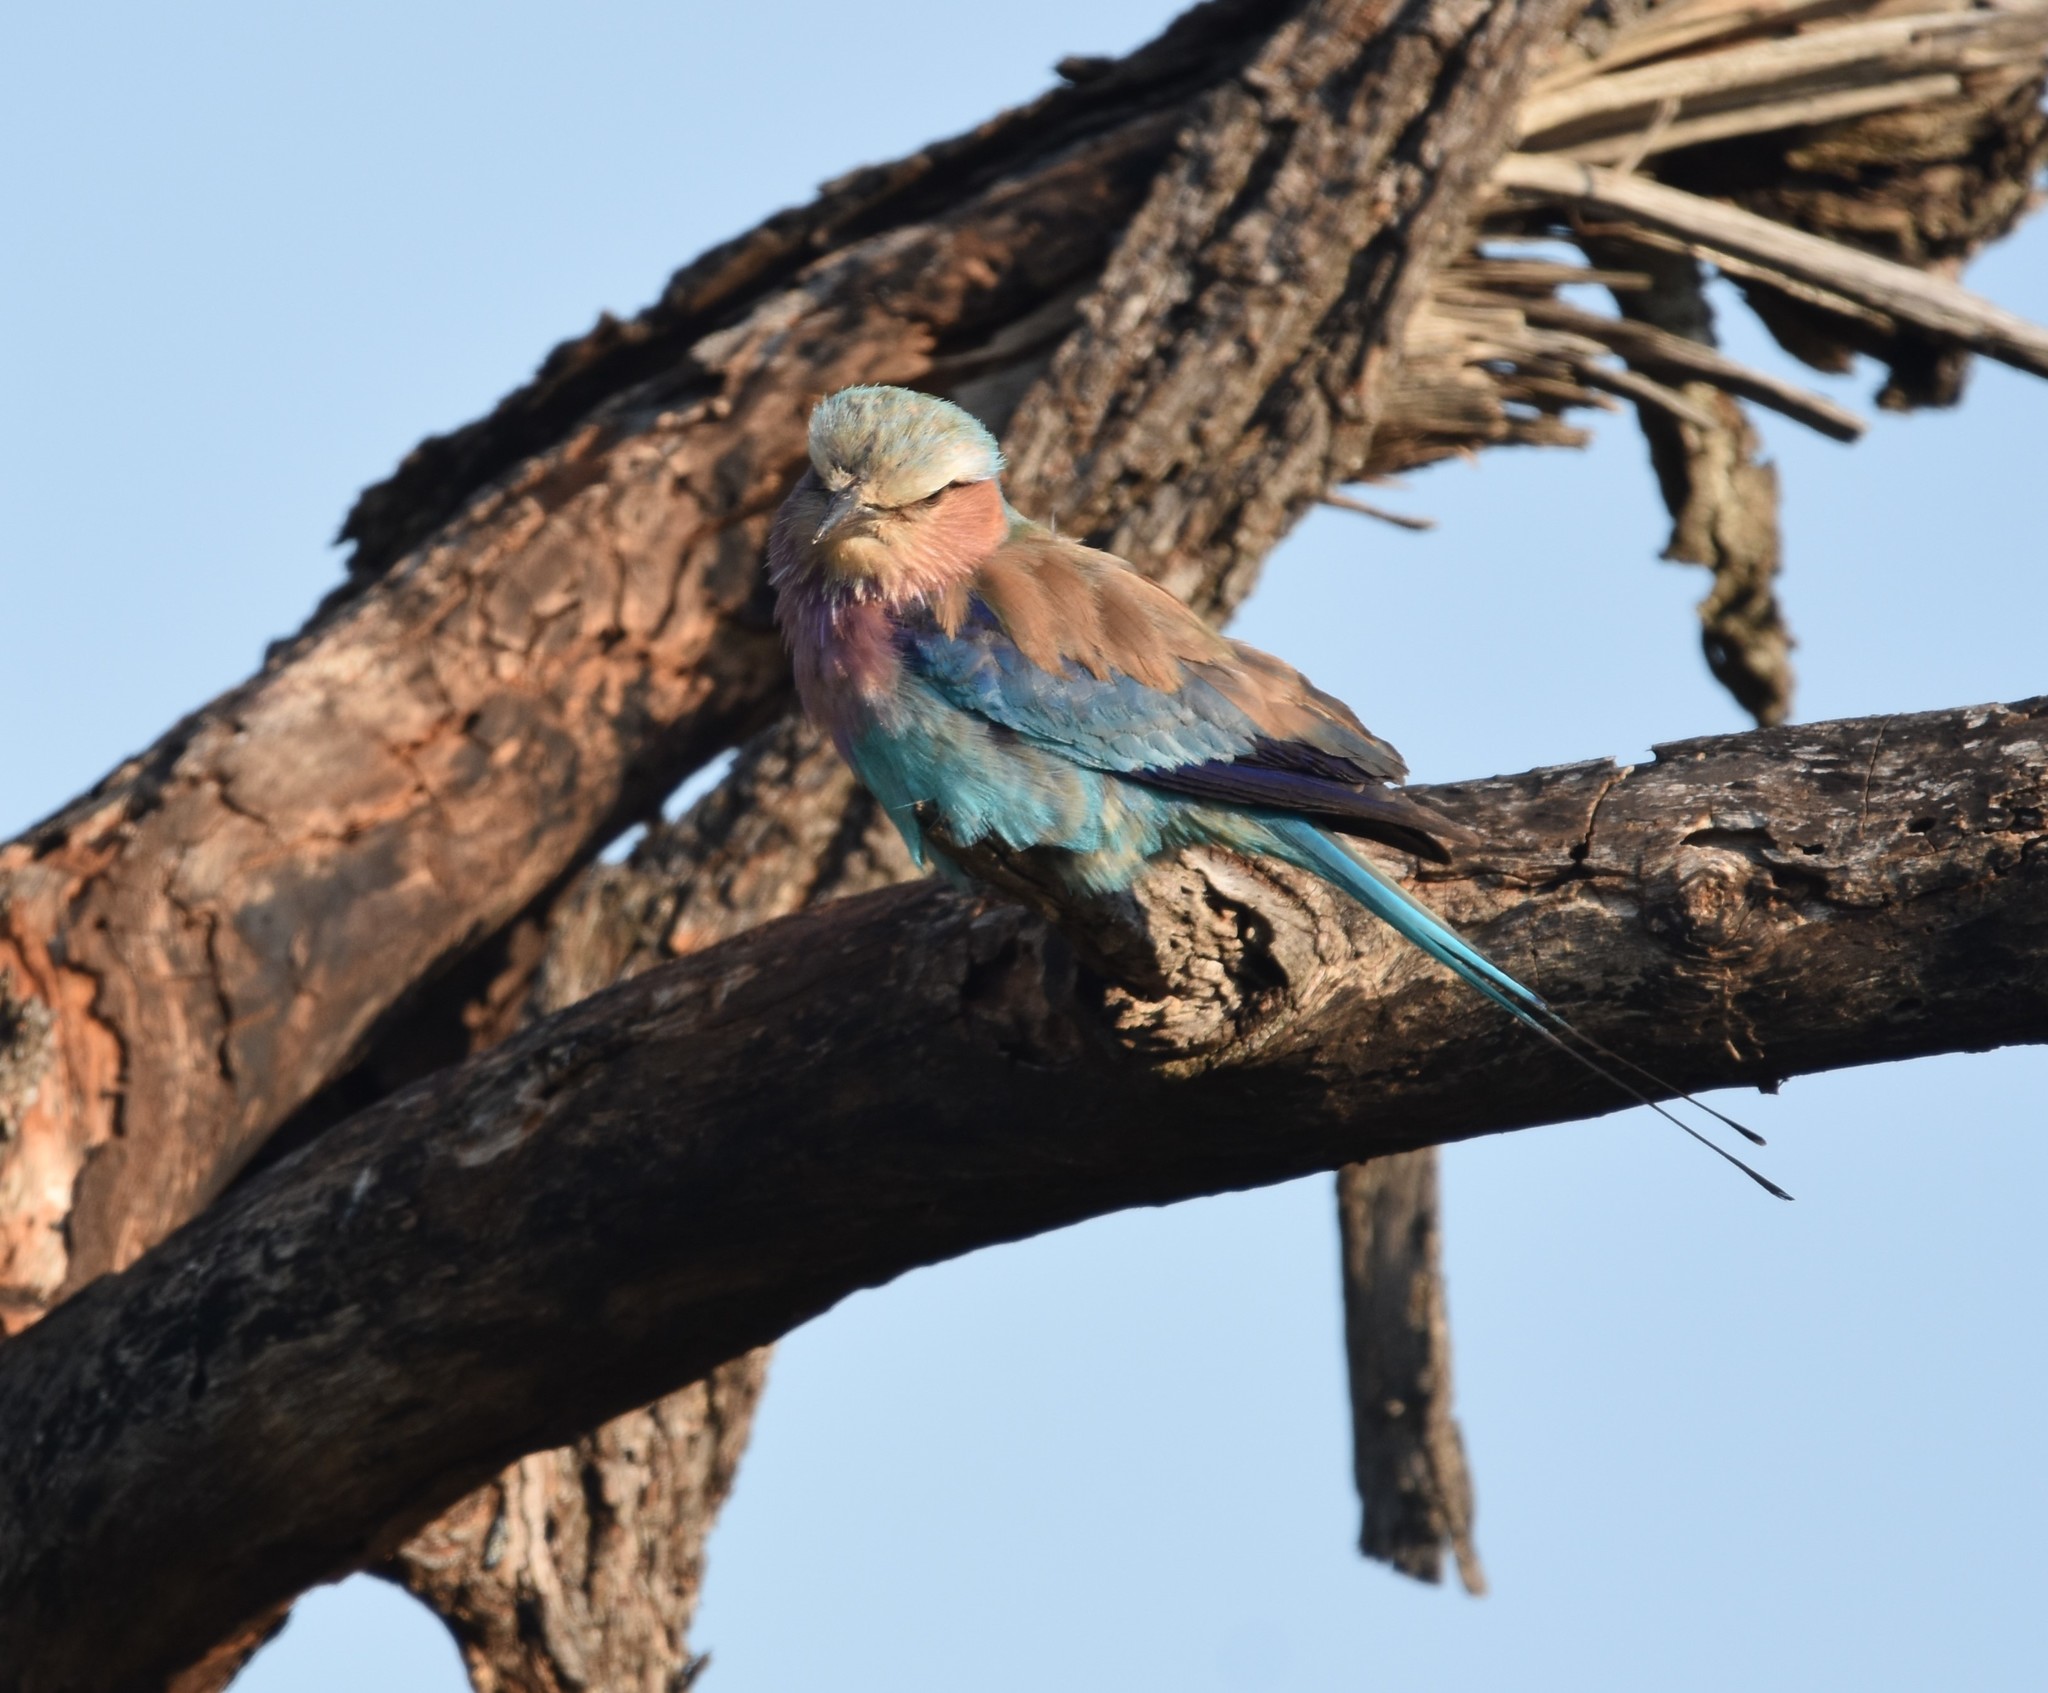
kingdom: Animalia
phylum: Chordata
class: Aves
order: Coraciiformes
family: Coraciidae
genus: Coracias
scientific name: Coracias caudatus
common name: Lilac-breasted roller
